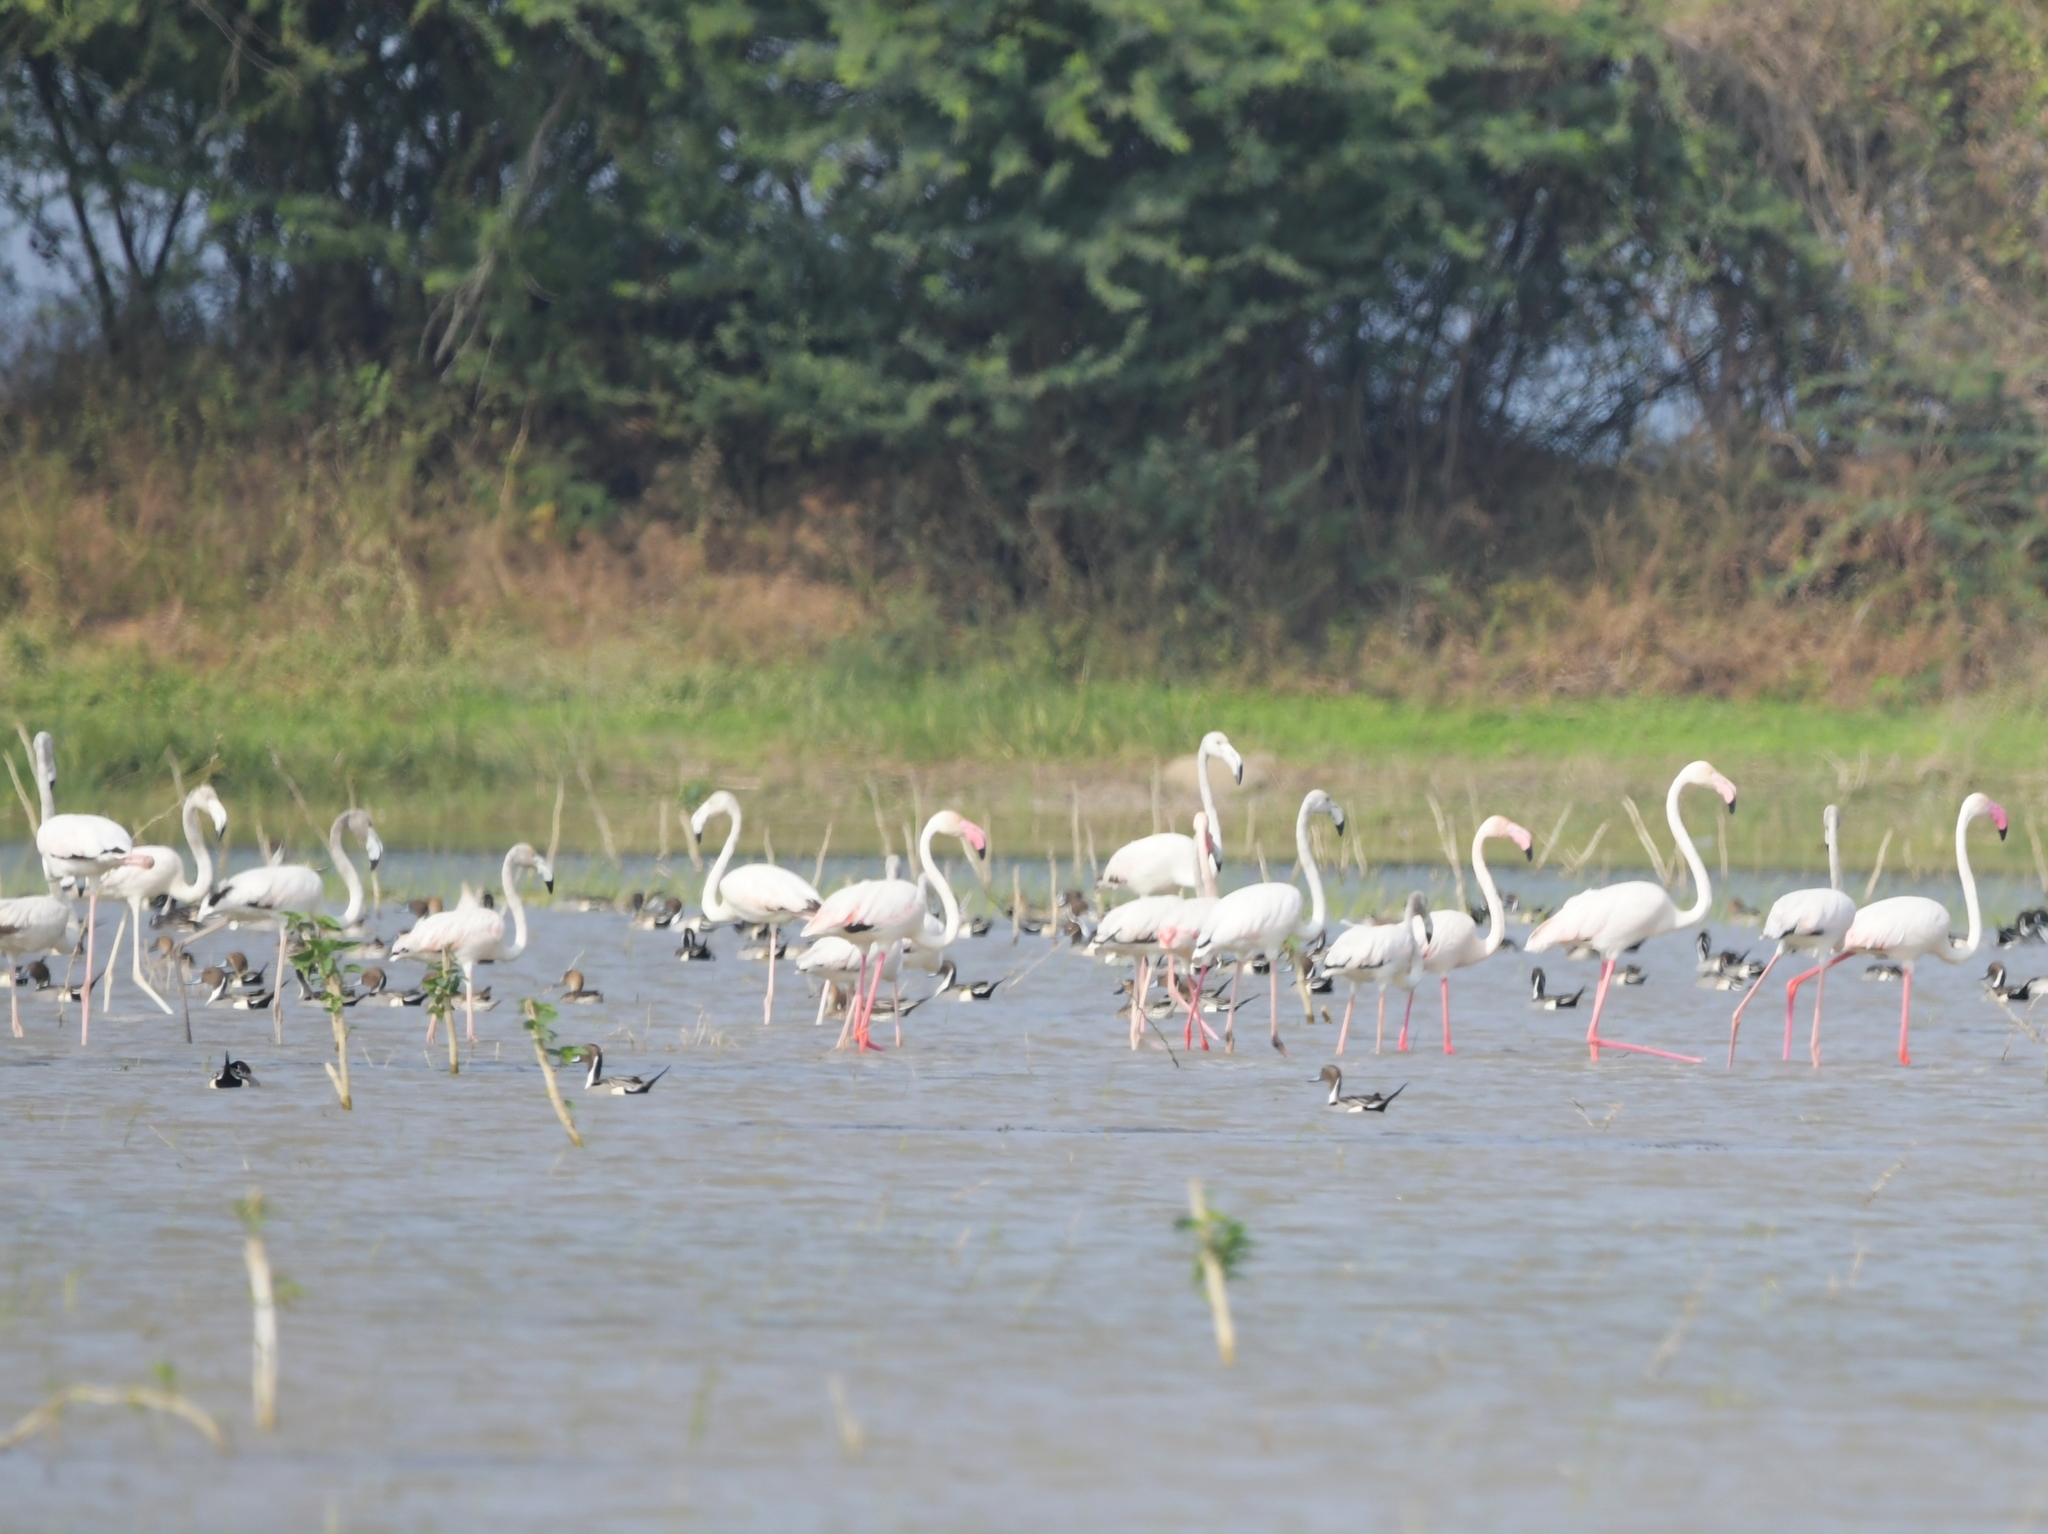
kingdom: Animalia
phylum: Chordata
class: Aves
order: Phoenicopteriformes
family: Phoenicopteridae
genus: Phoenicopterus
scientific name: Phoenicopterus roseus
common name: Greater flamingo
